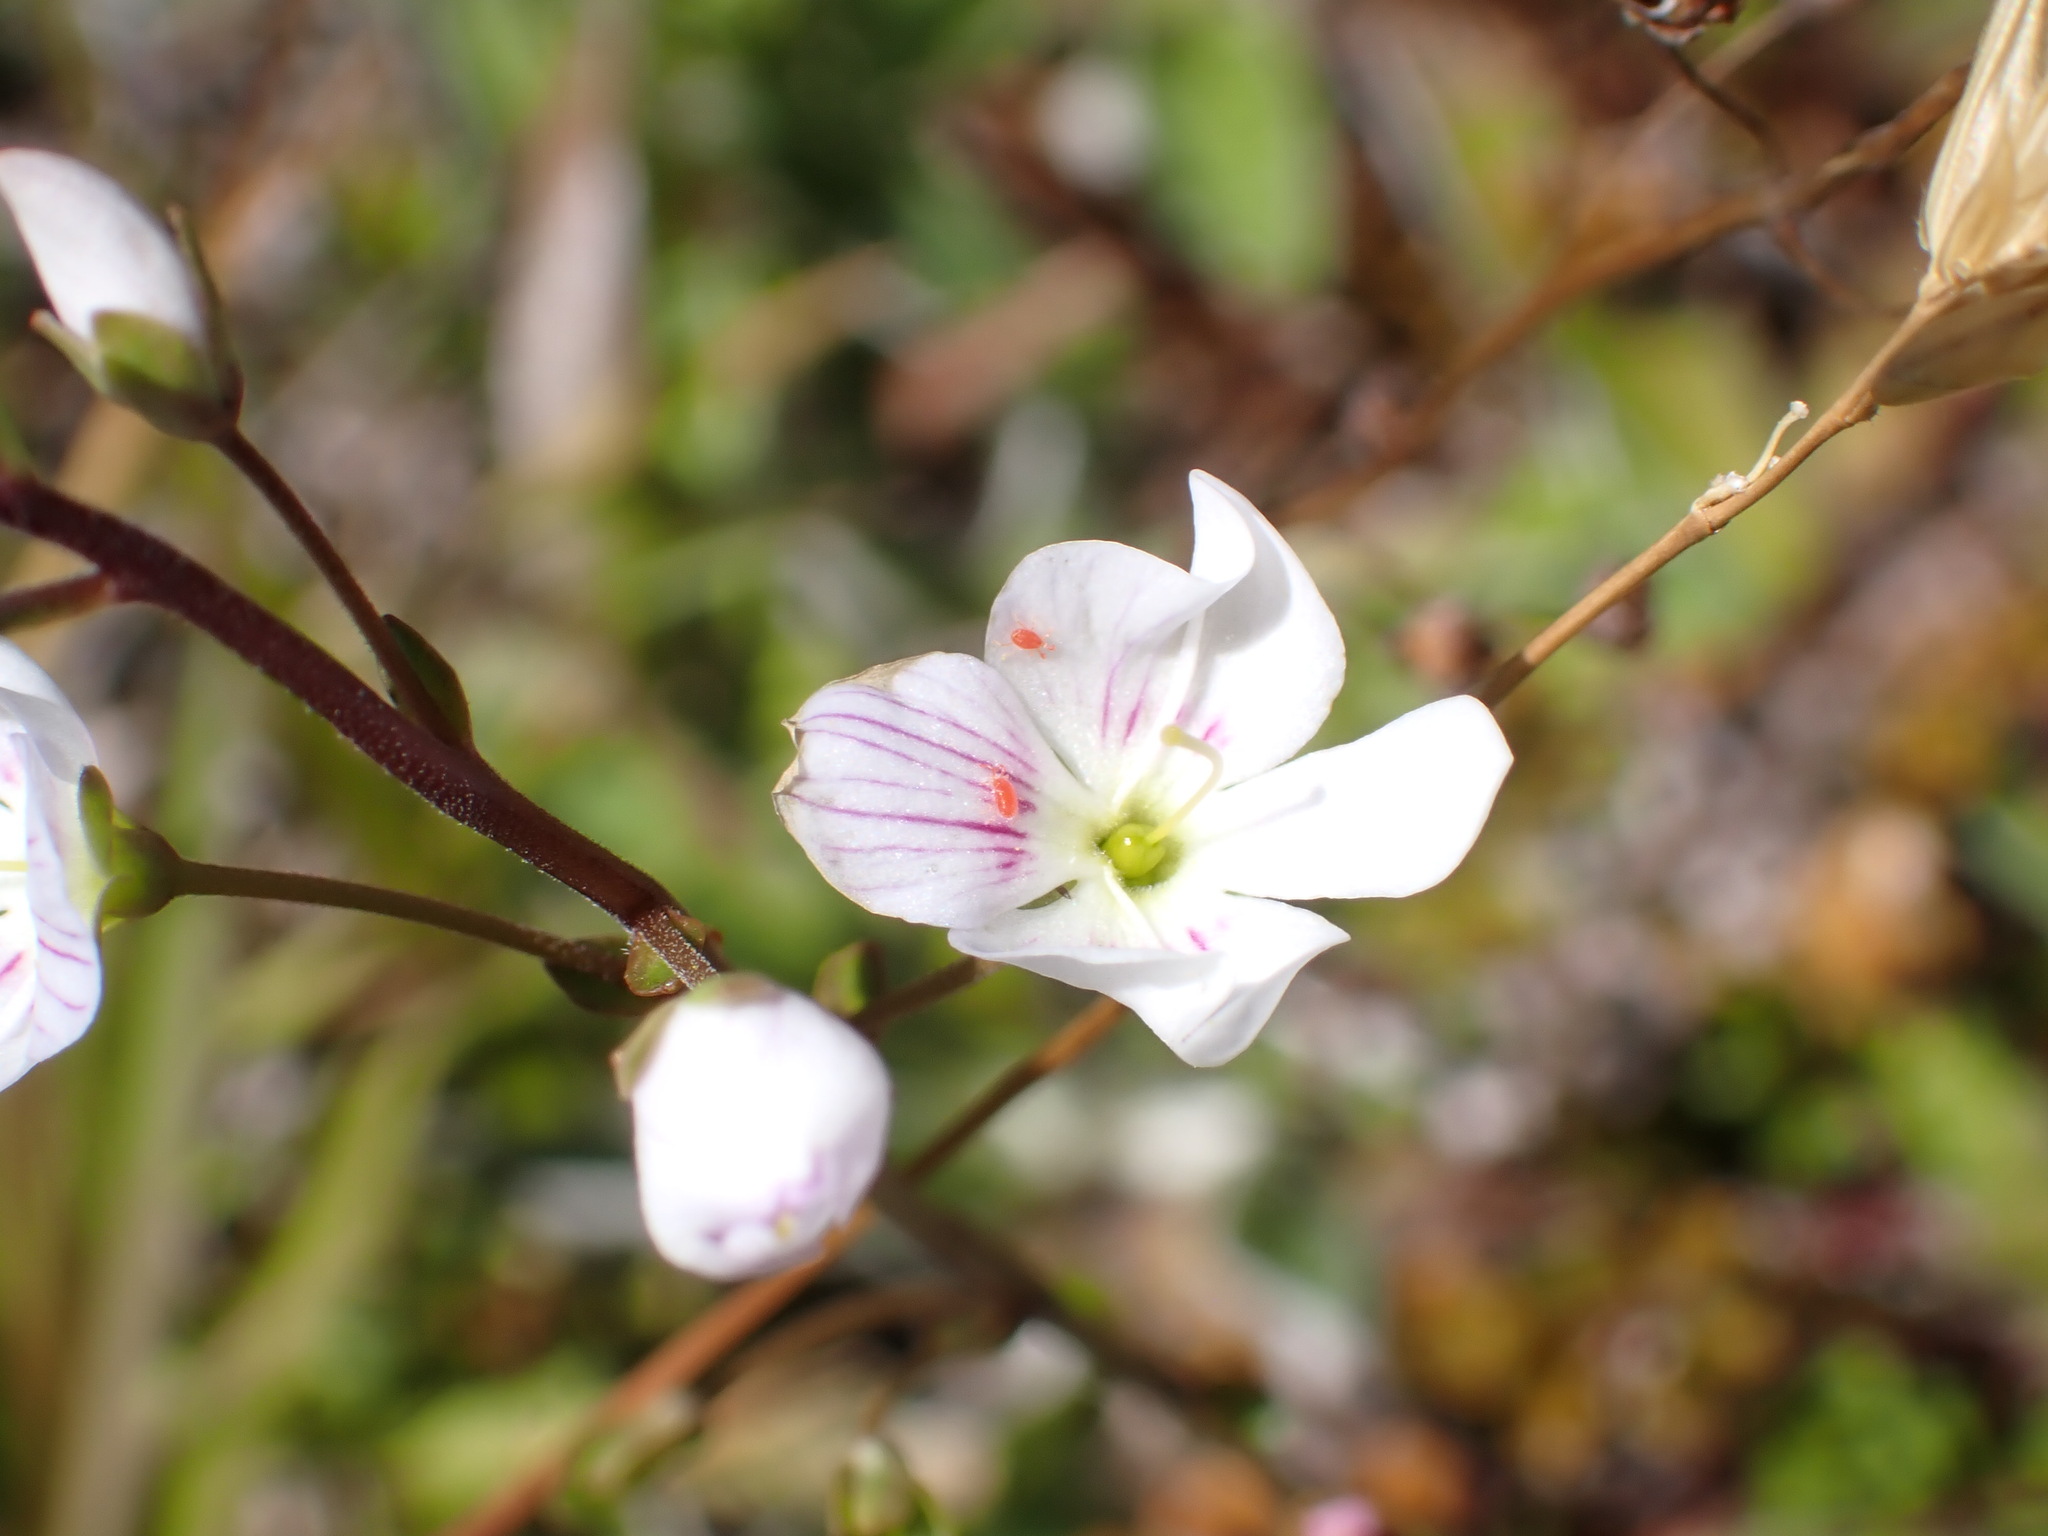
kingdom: Plantae
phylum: Tracheophyta
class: Magnoliopsida
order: Lamiales
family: Plantaginaceae
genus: Veronica
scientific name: Veronica decora
